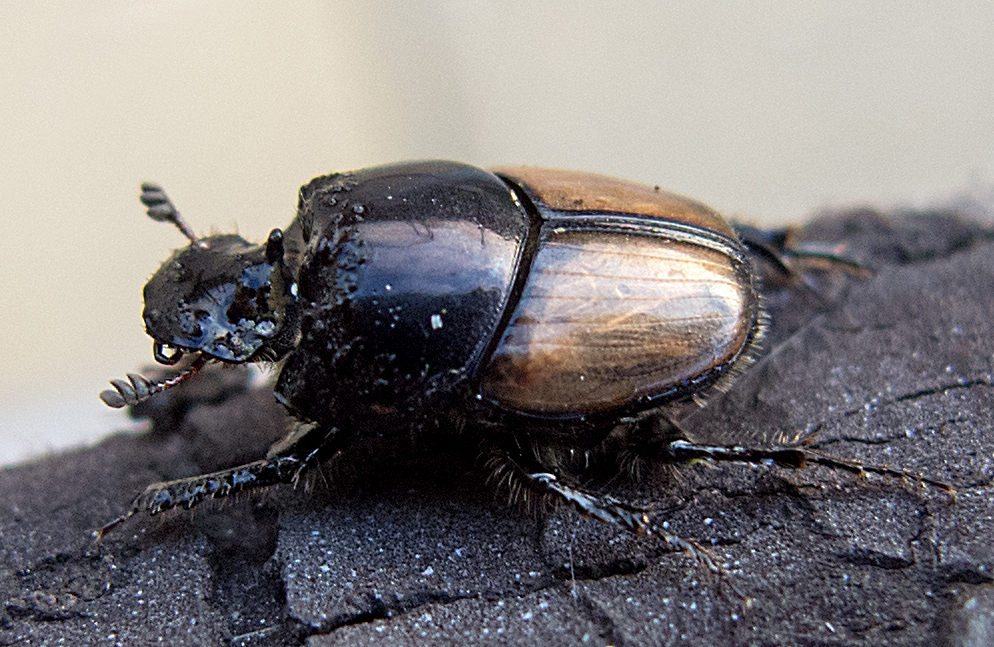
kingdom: Animalia
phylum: Arthropoda
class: Insecta
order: Coleoptera
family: Scarabaeidae
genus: Onthophagus
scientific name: Onthophagus lucidus
